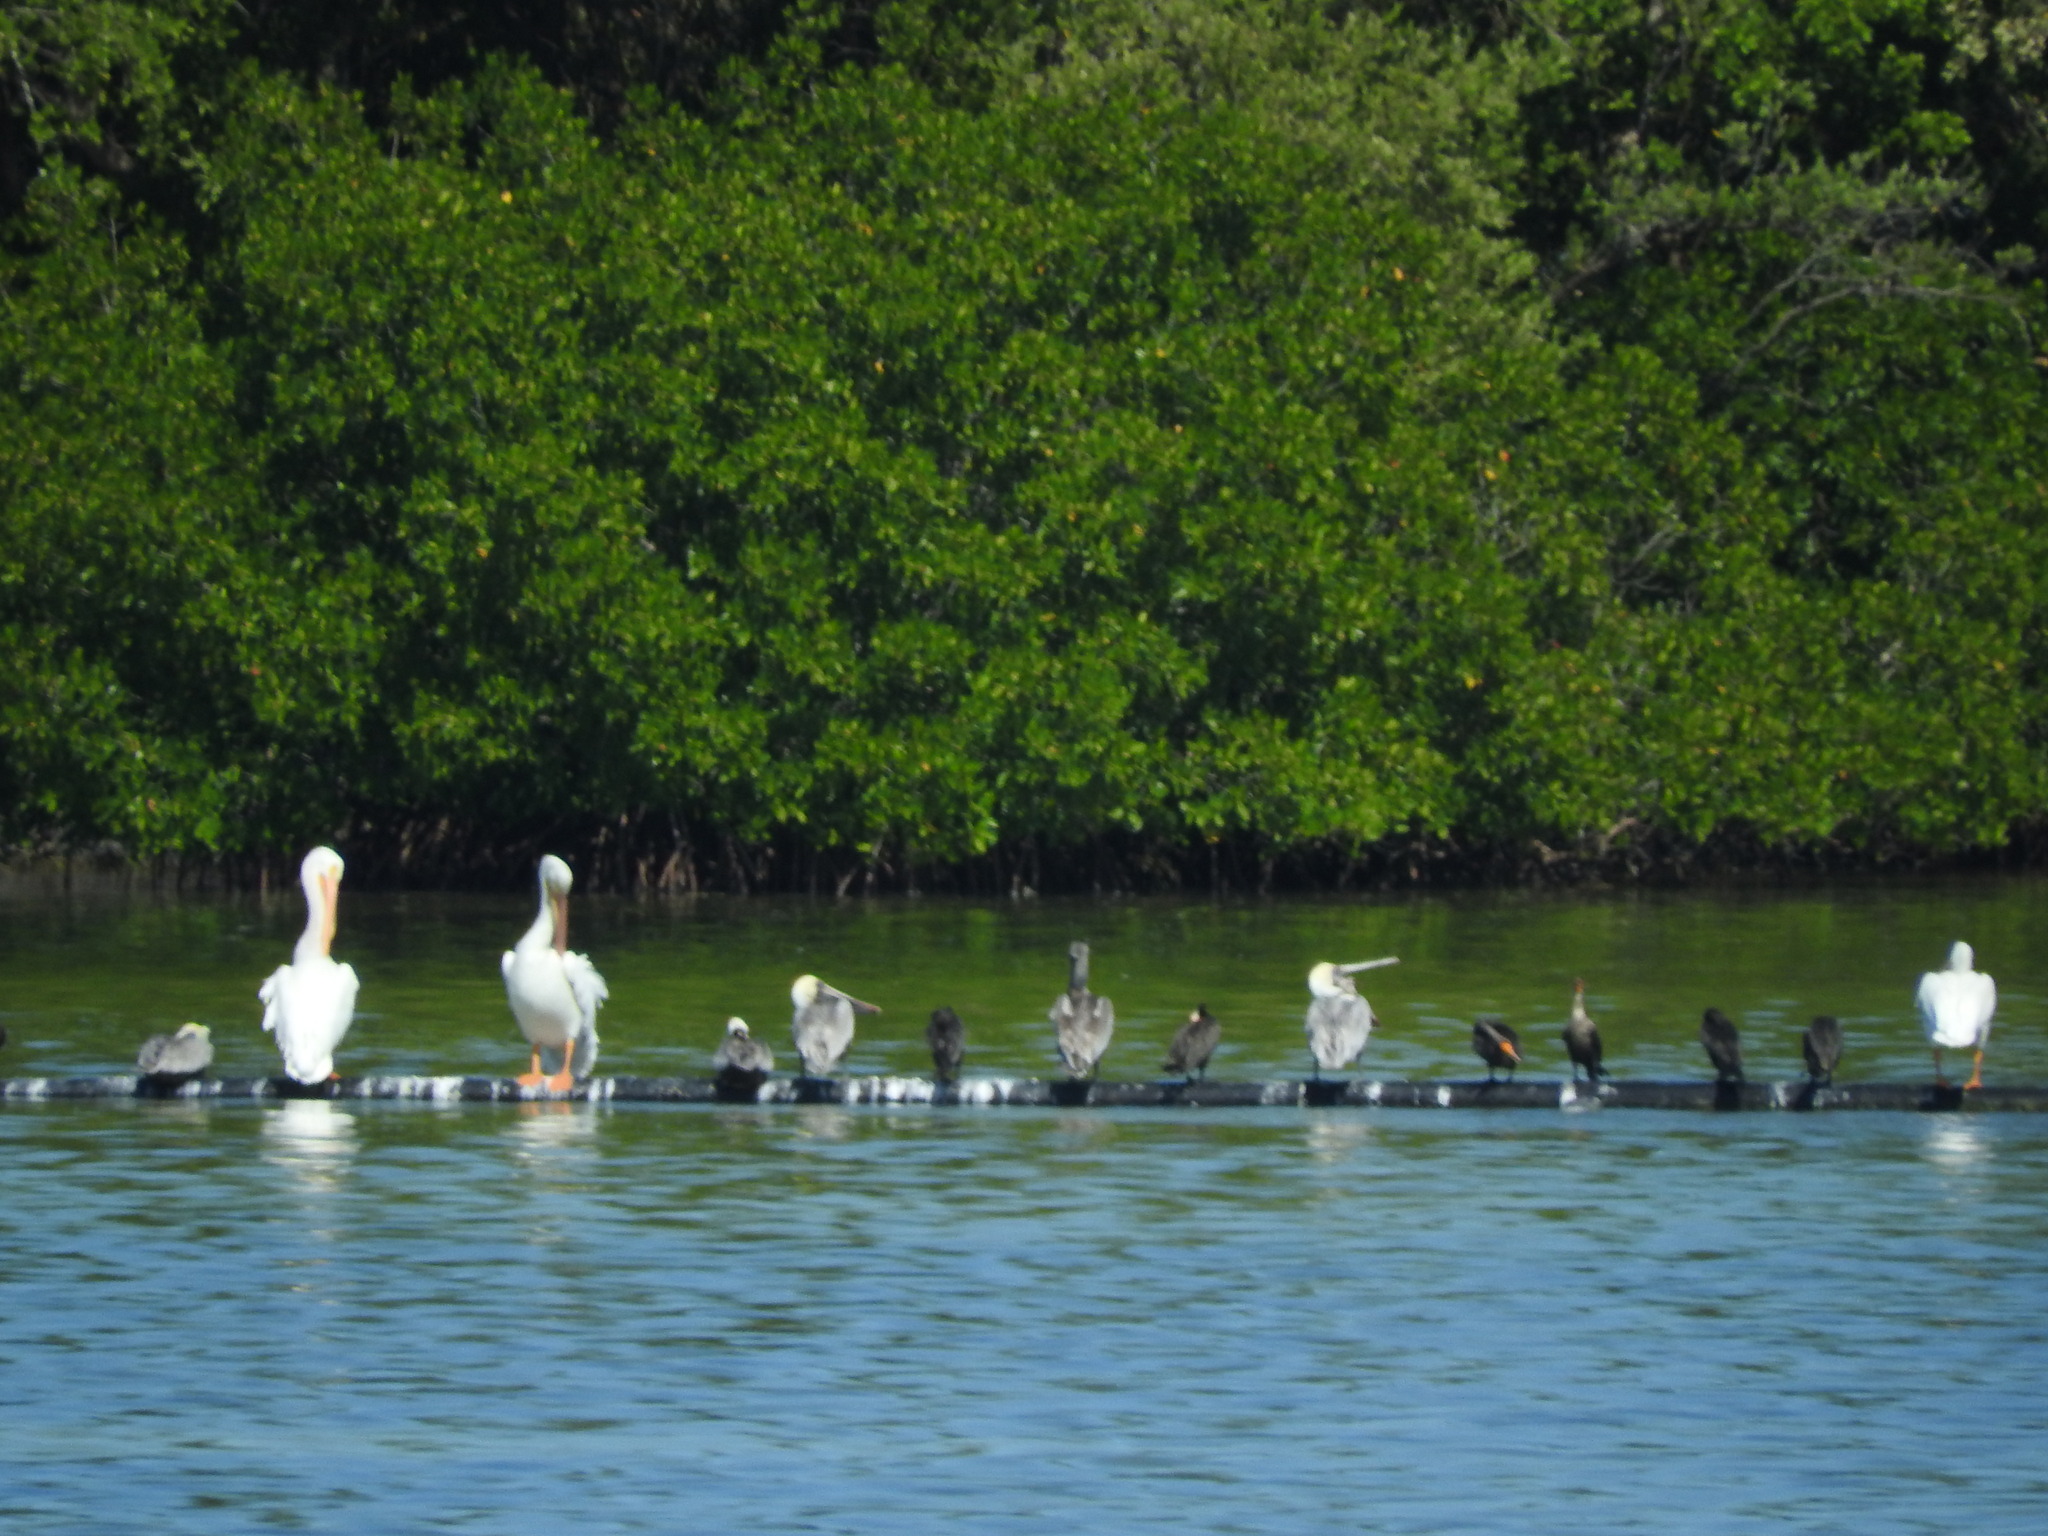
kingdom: Animalia
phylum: Chordata
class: Aves
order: Pelecaniformes
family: Pelecanidae
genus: Pelecanus
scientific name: Pelecanus erythrorhynchos
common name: American white pelican
